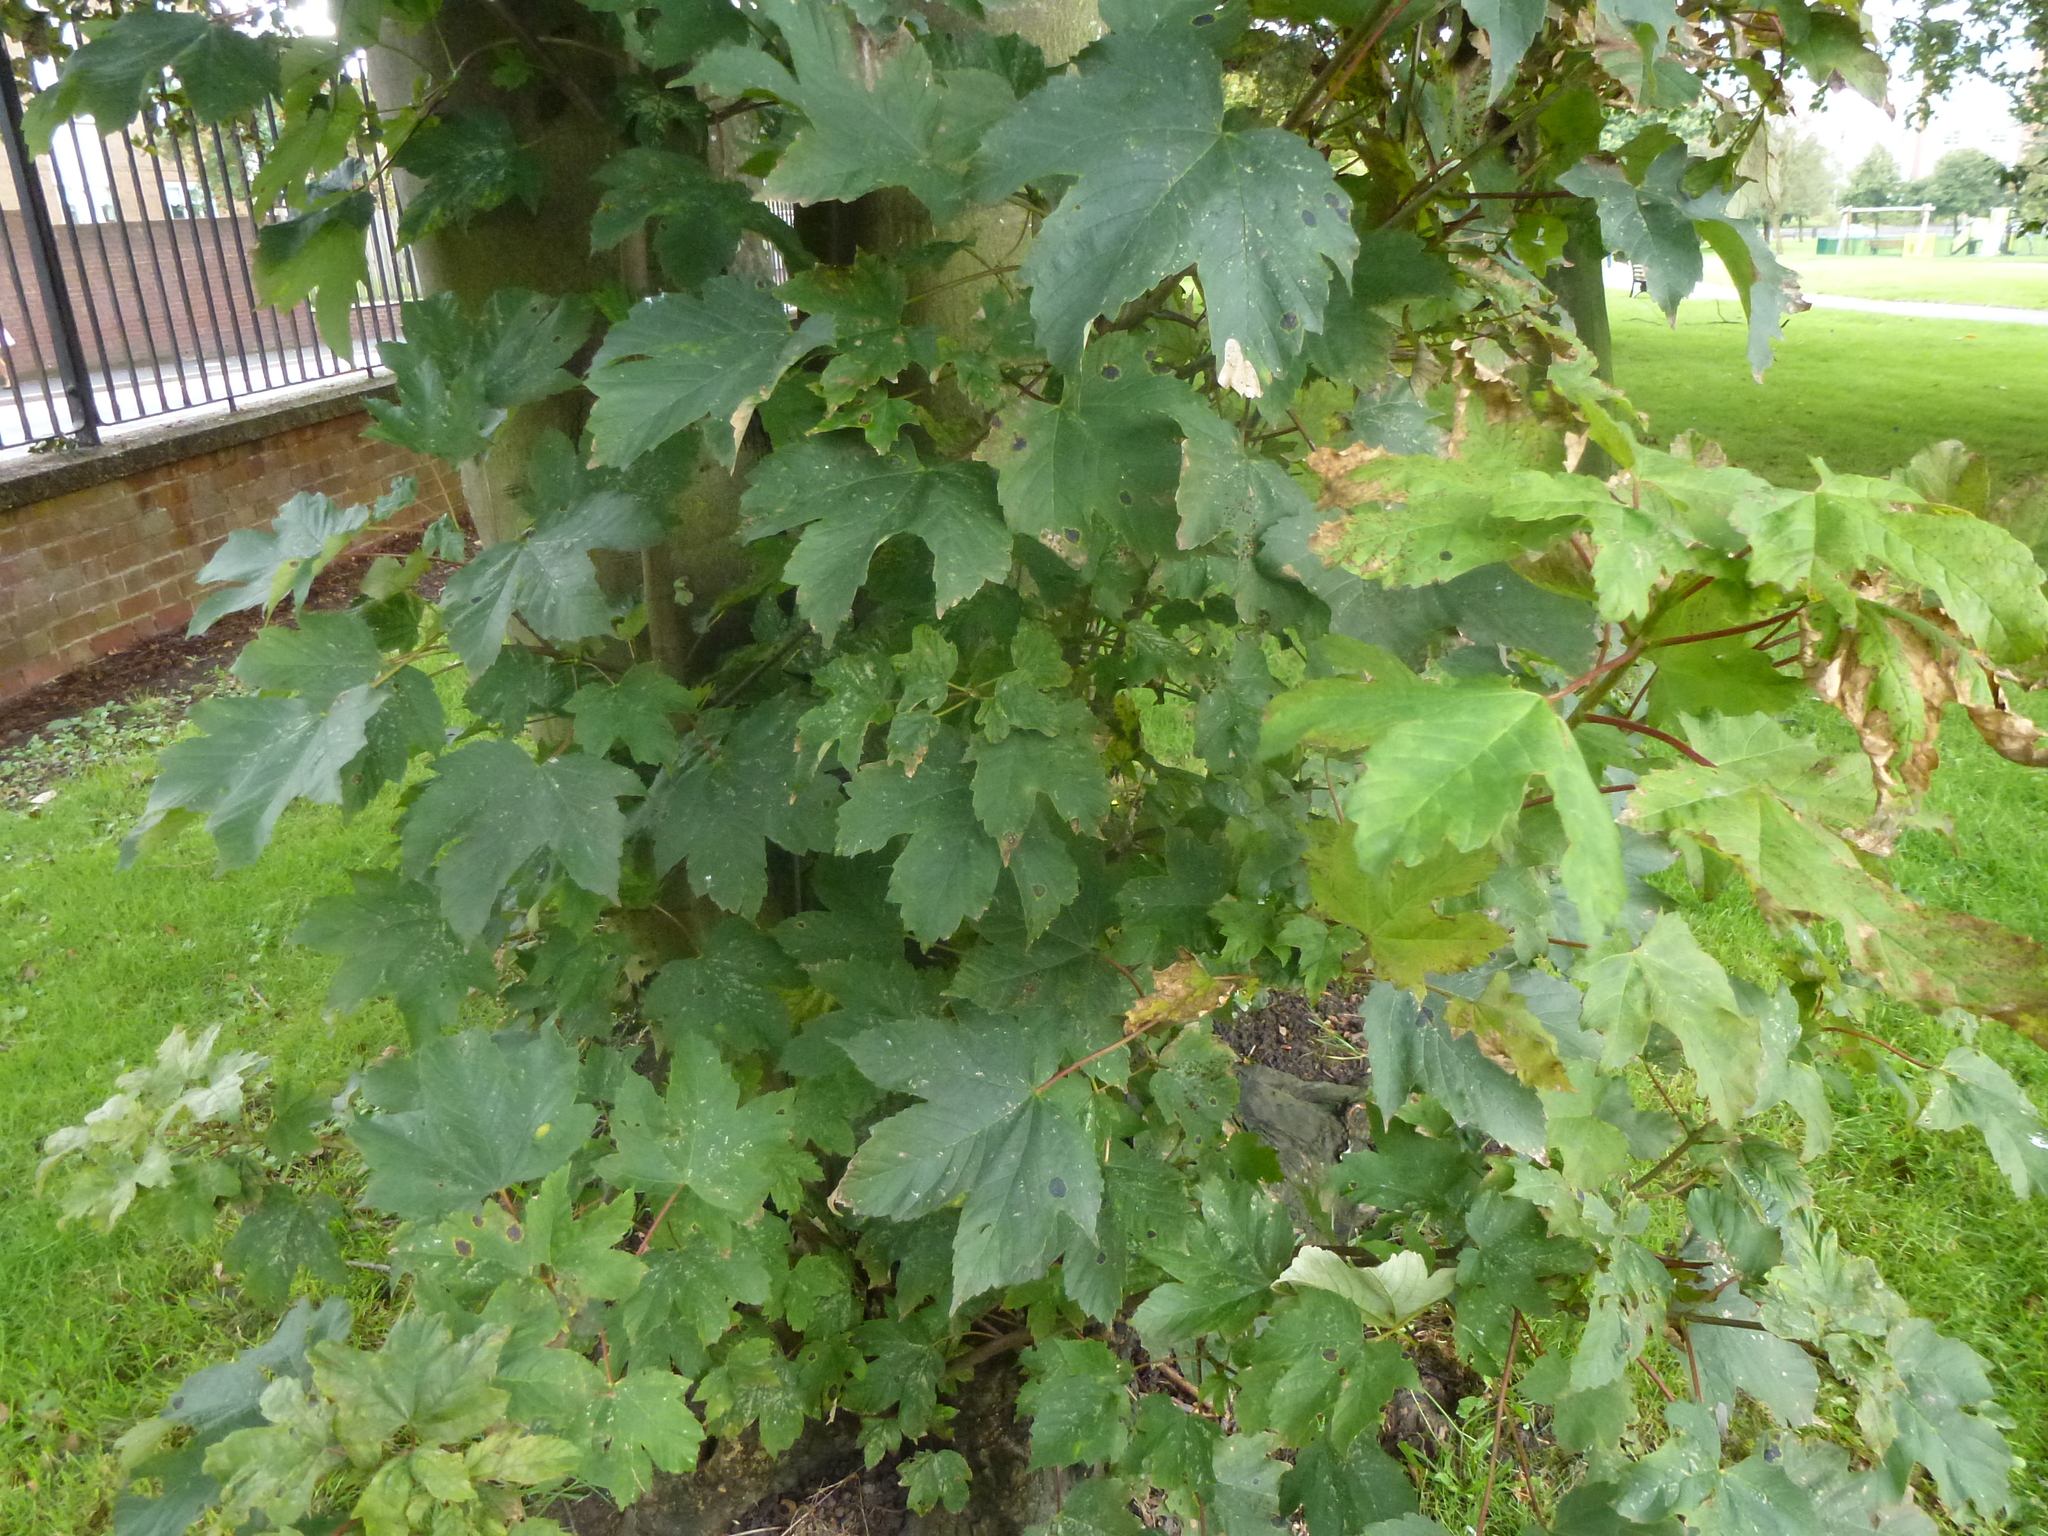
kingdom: Plantae
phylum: Tracheophyta
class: Magnoliopsida
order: Sapindales
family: Sapindaceae
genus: Acer
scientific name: Acer pseudoplatanus
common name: Sycamore
